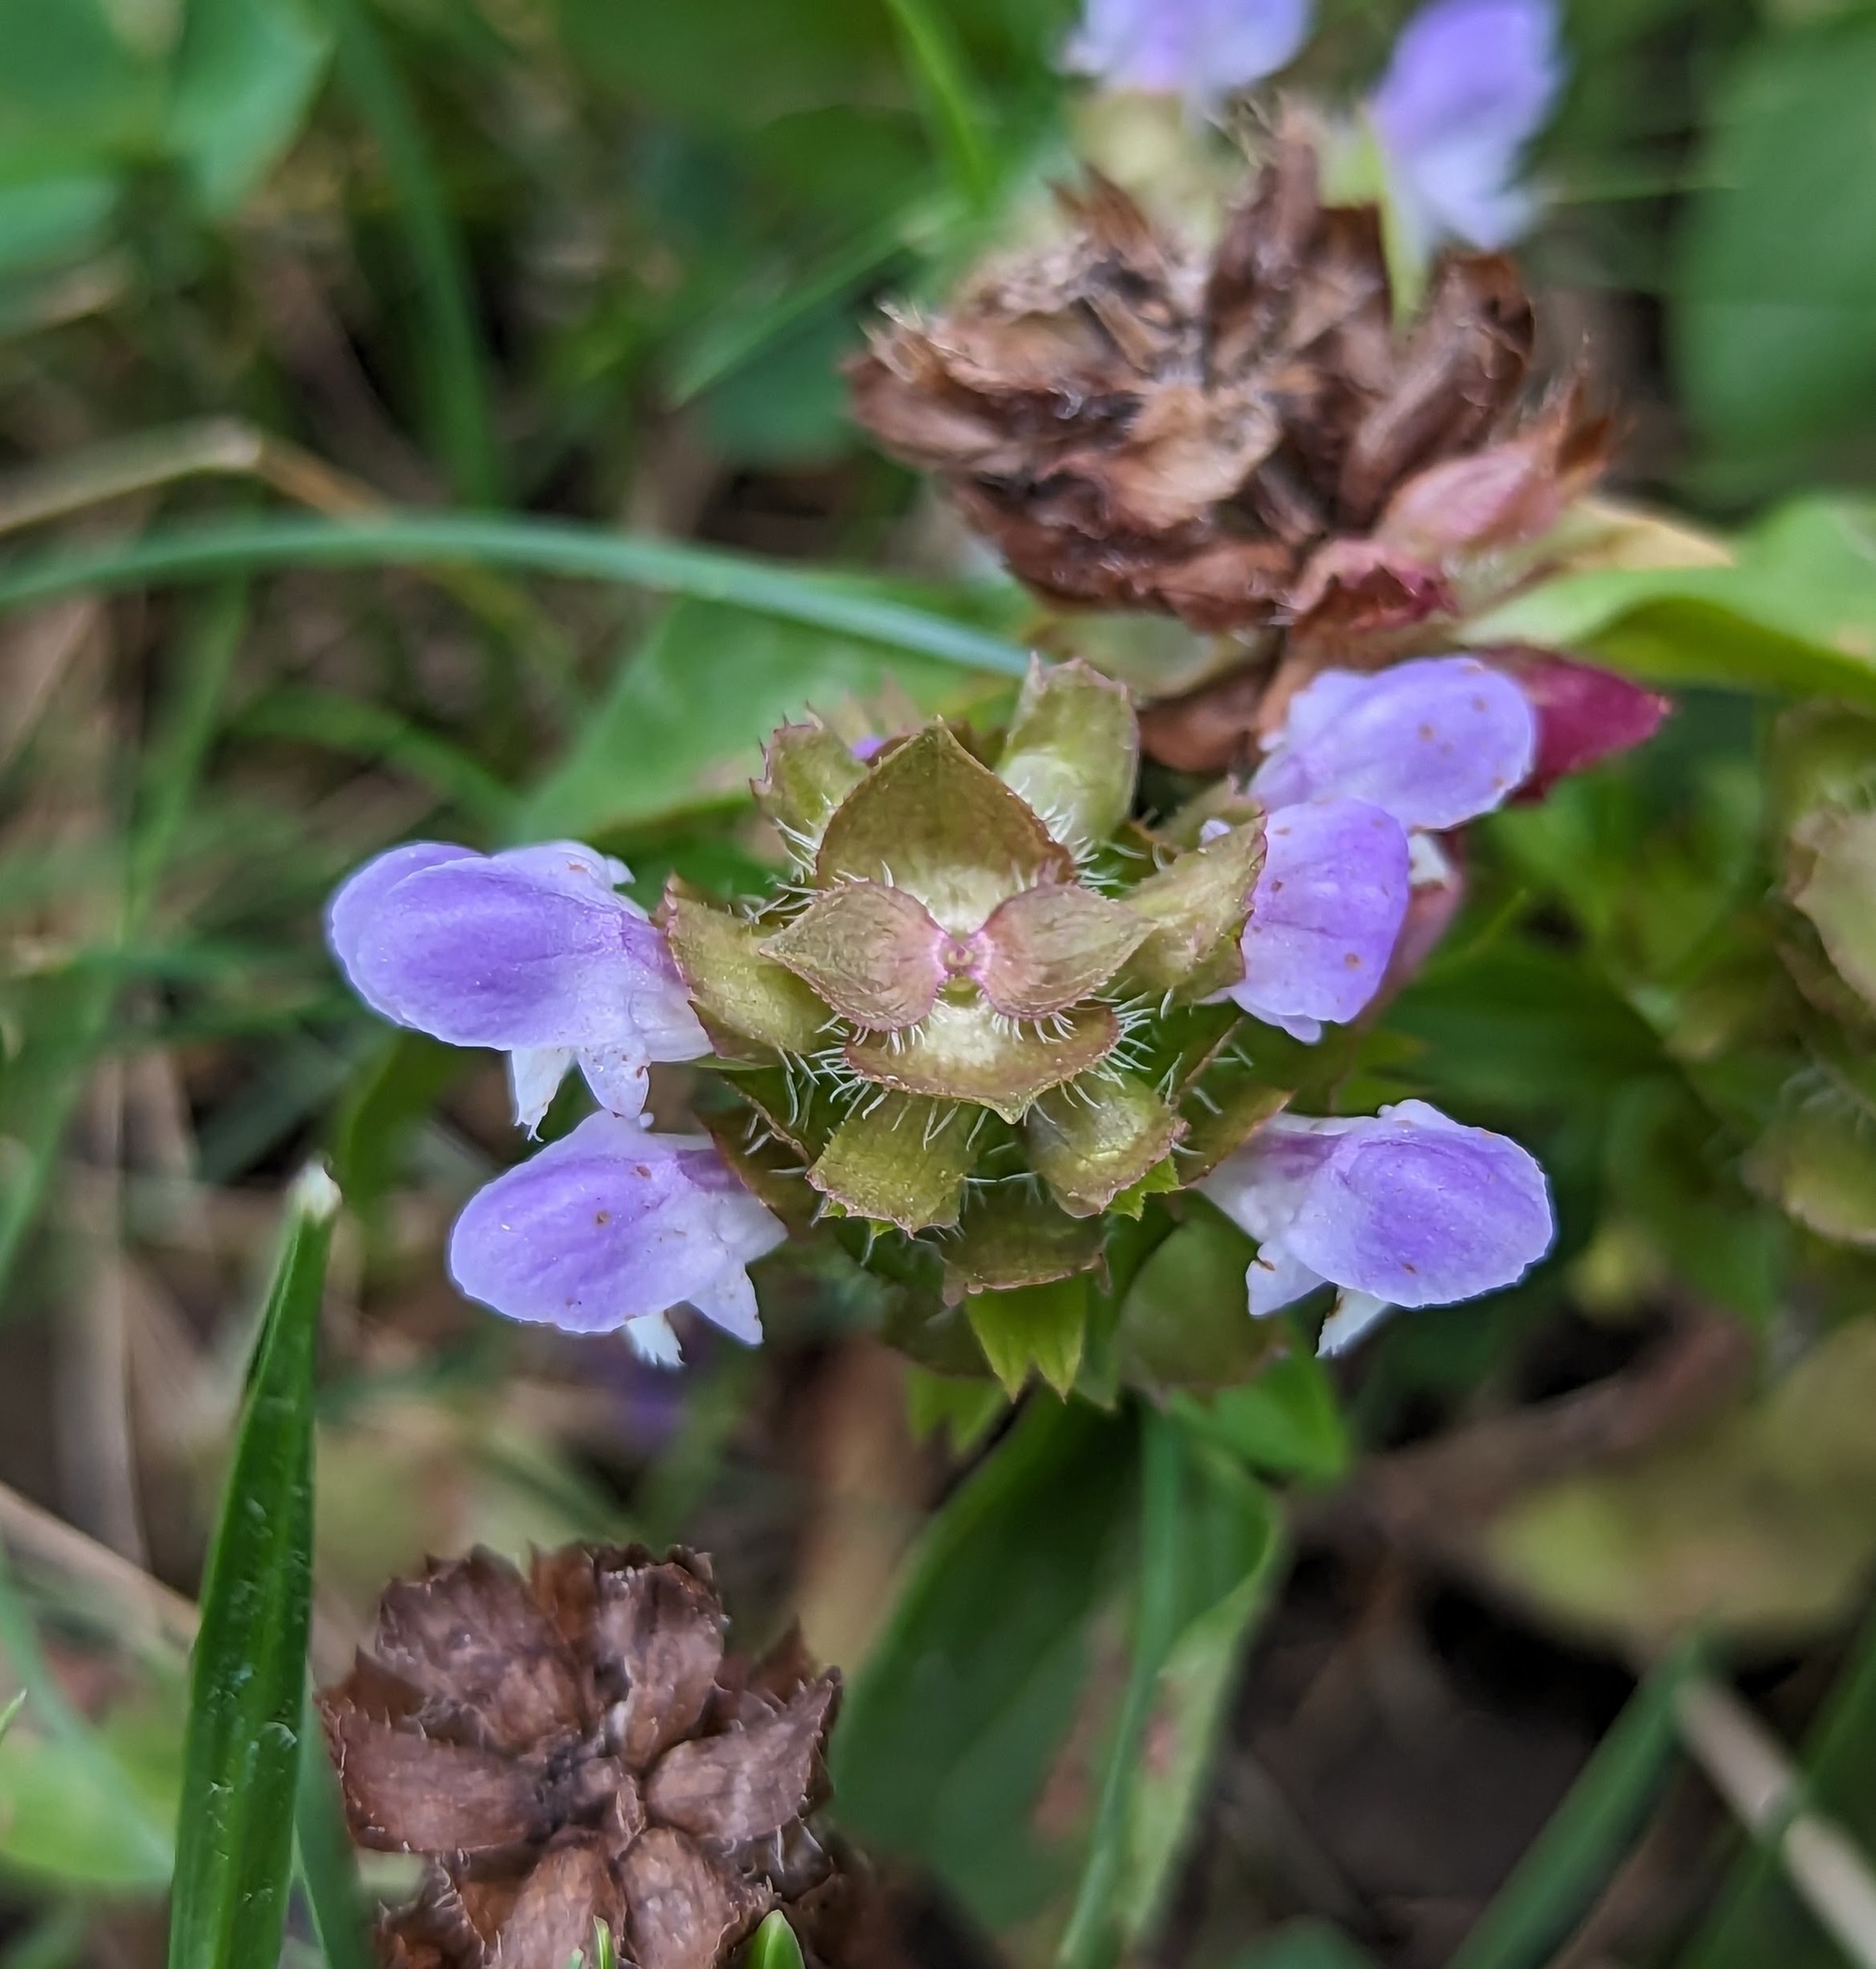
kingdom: Plantae
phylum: Tracheophyta
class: Magnoliopsida
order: Lamiales
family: Lamiaceae
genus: Prunella
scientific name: Prunella vulgaris
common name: Heal-all
